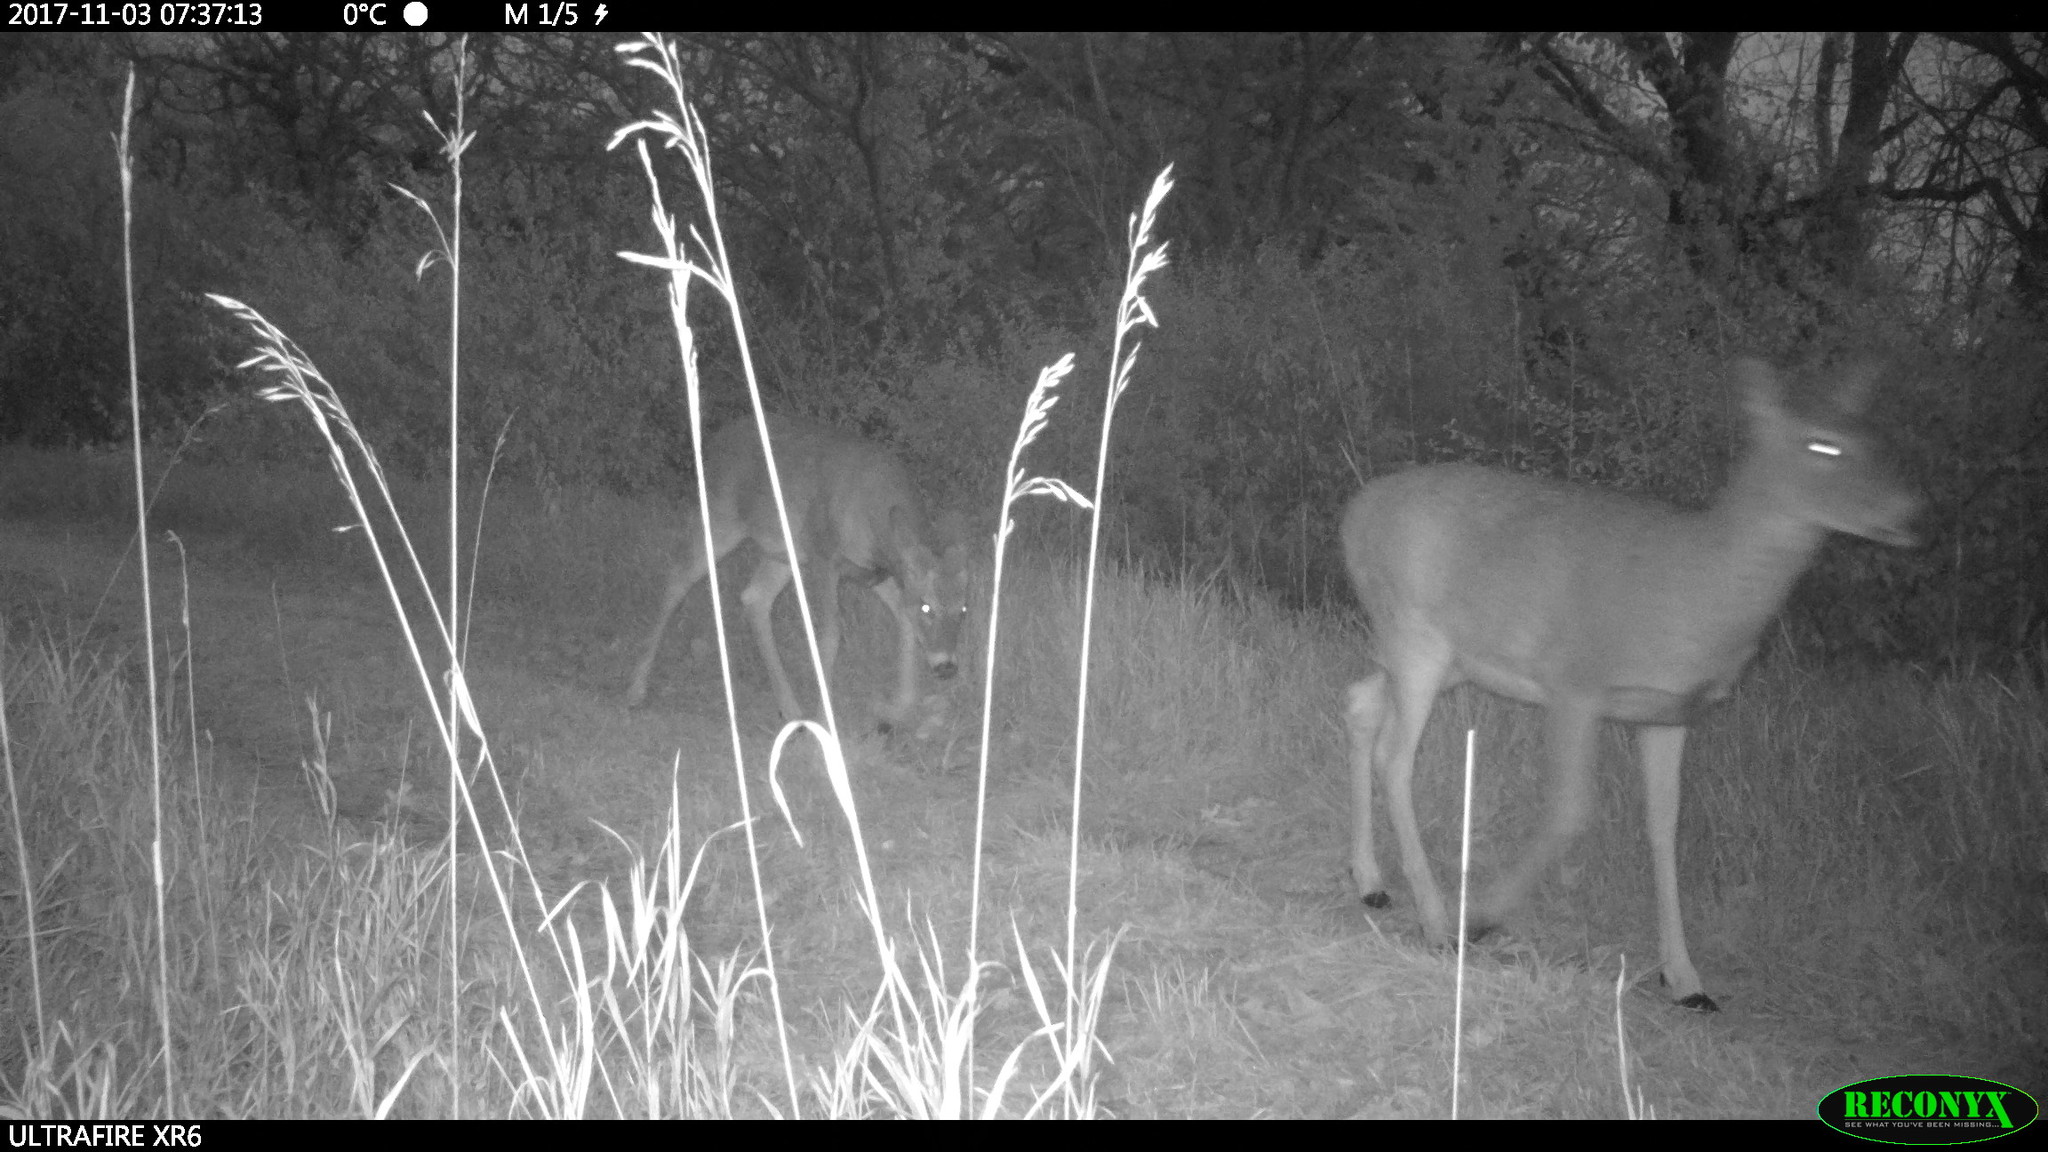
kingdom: Animalia
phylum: Chordata
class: Mammalia
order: Artiodactyla
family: Cervidae
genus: Odocoileus
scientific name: Odocoileus virginianus
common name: White-tailed deer
